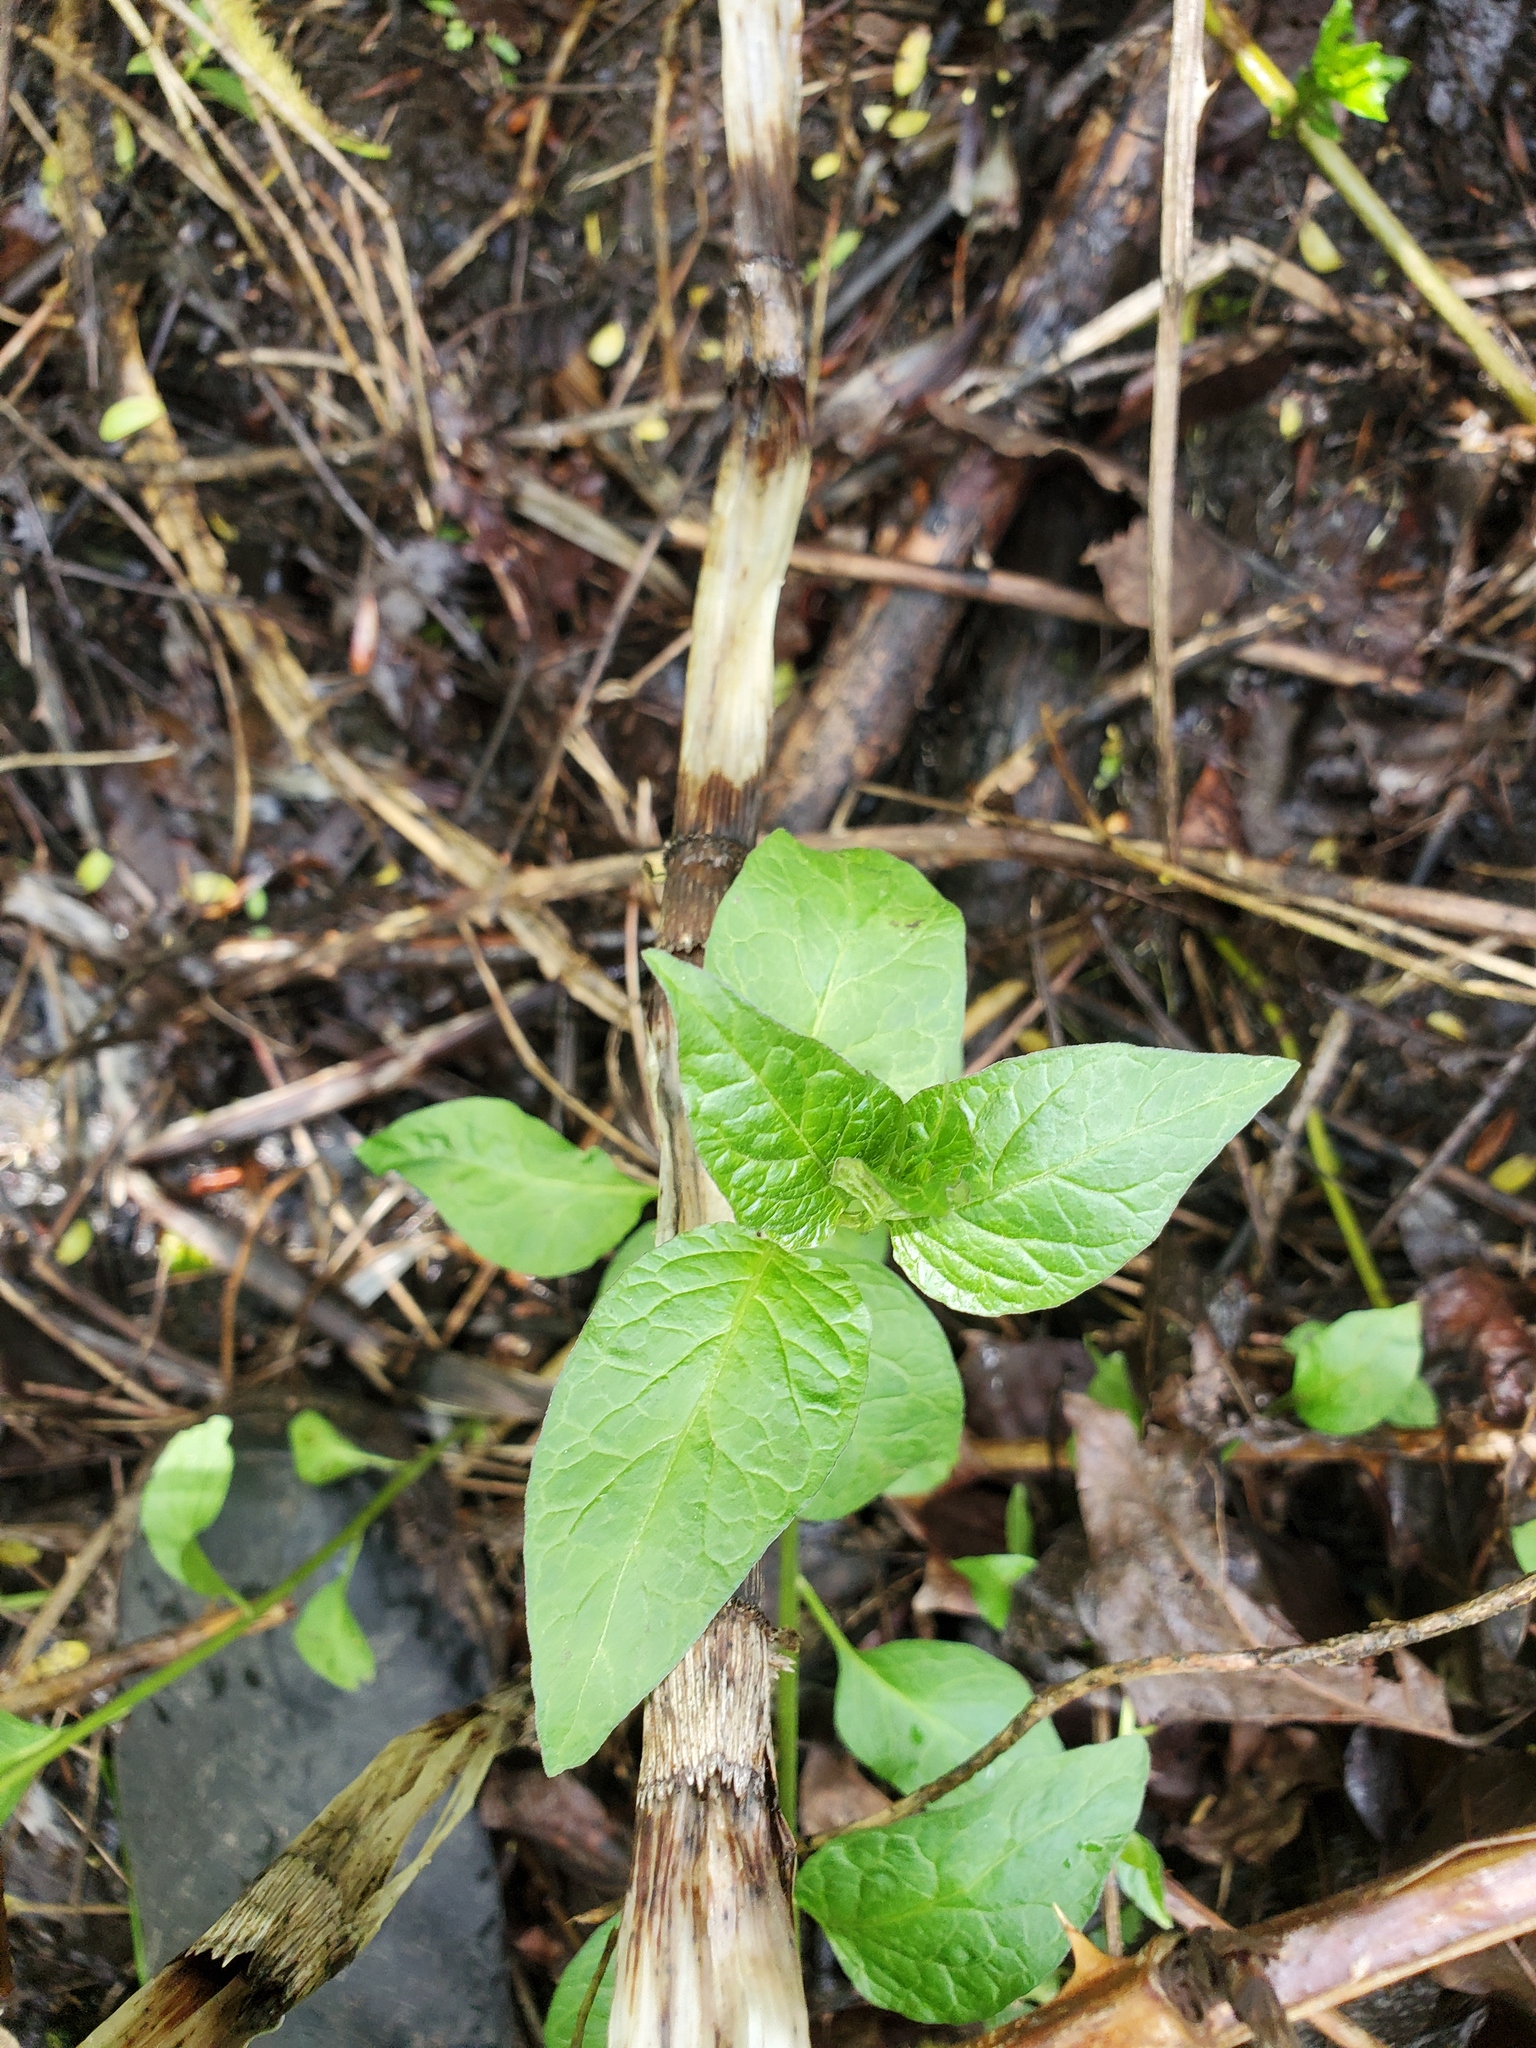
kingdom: Plantae
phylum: Tracheophyta
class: Magnoliopsida
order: Solanales
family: Solanaceae
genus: Solanum
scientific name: Solanum dulcamara
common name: Climbing nightshade
